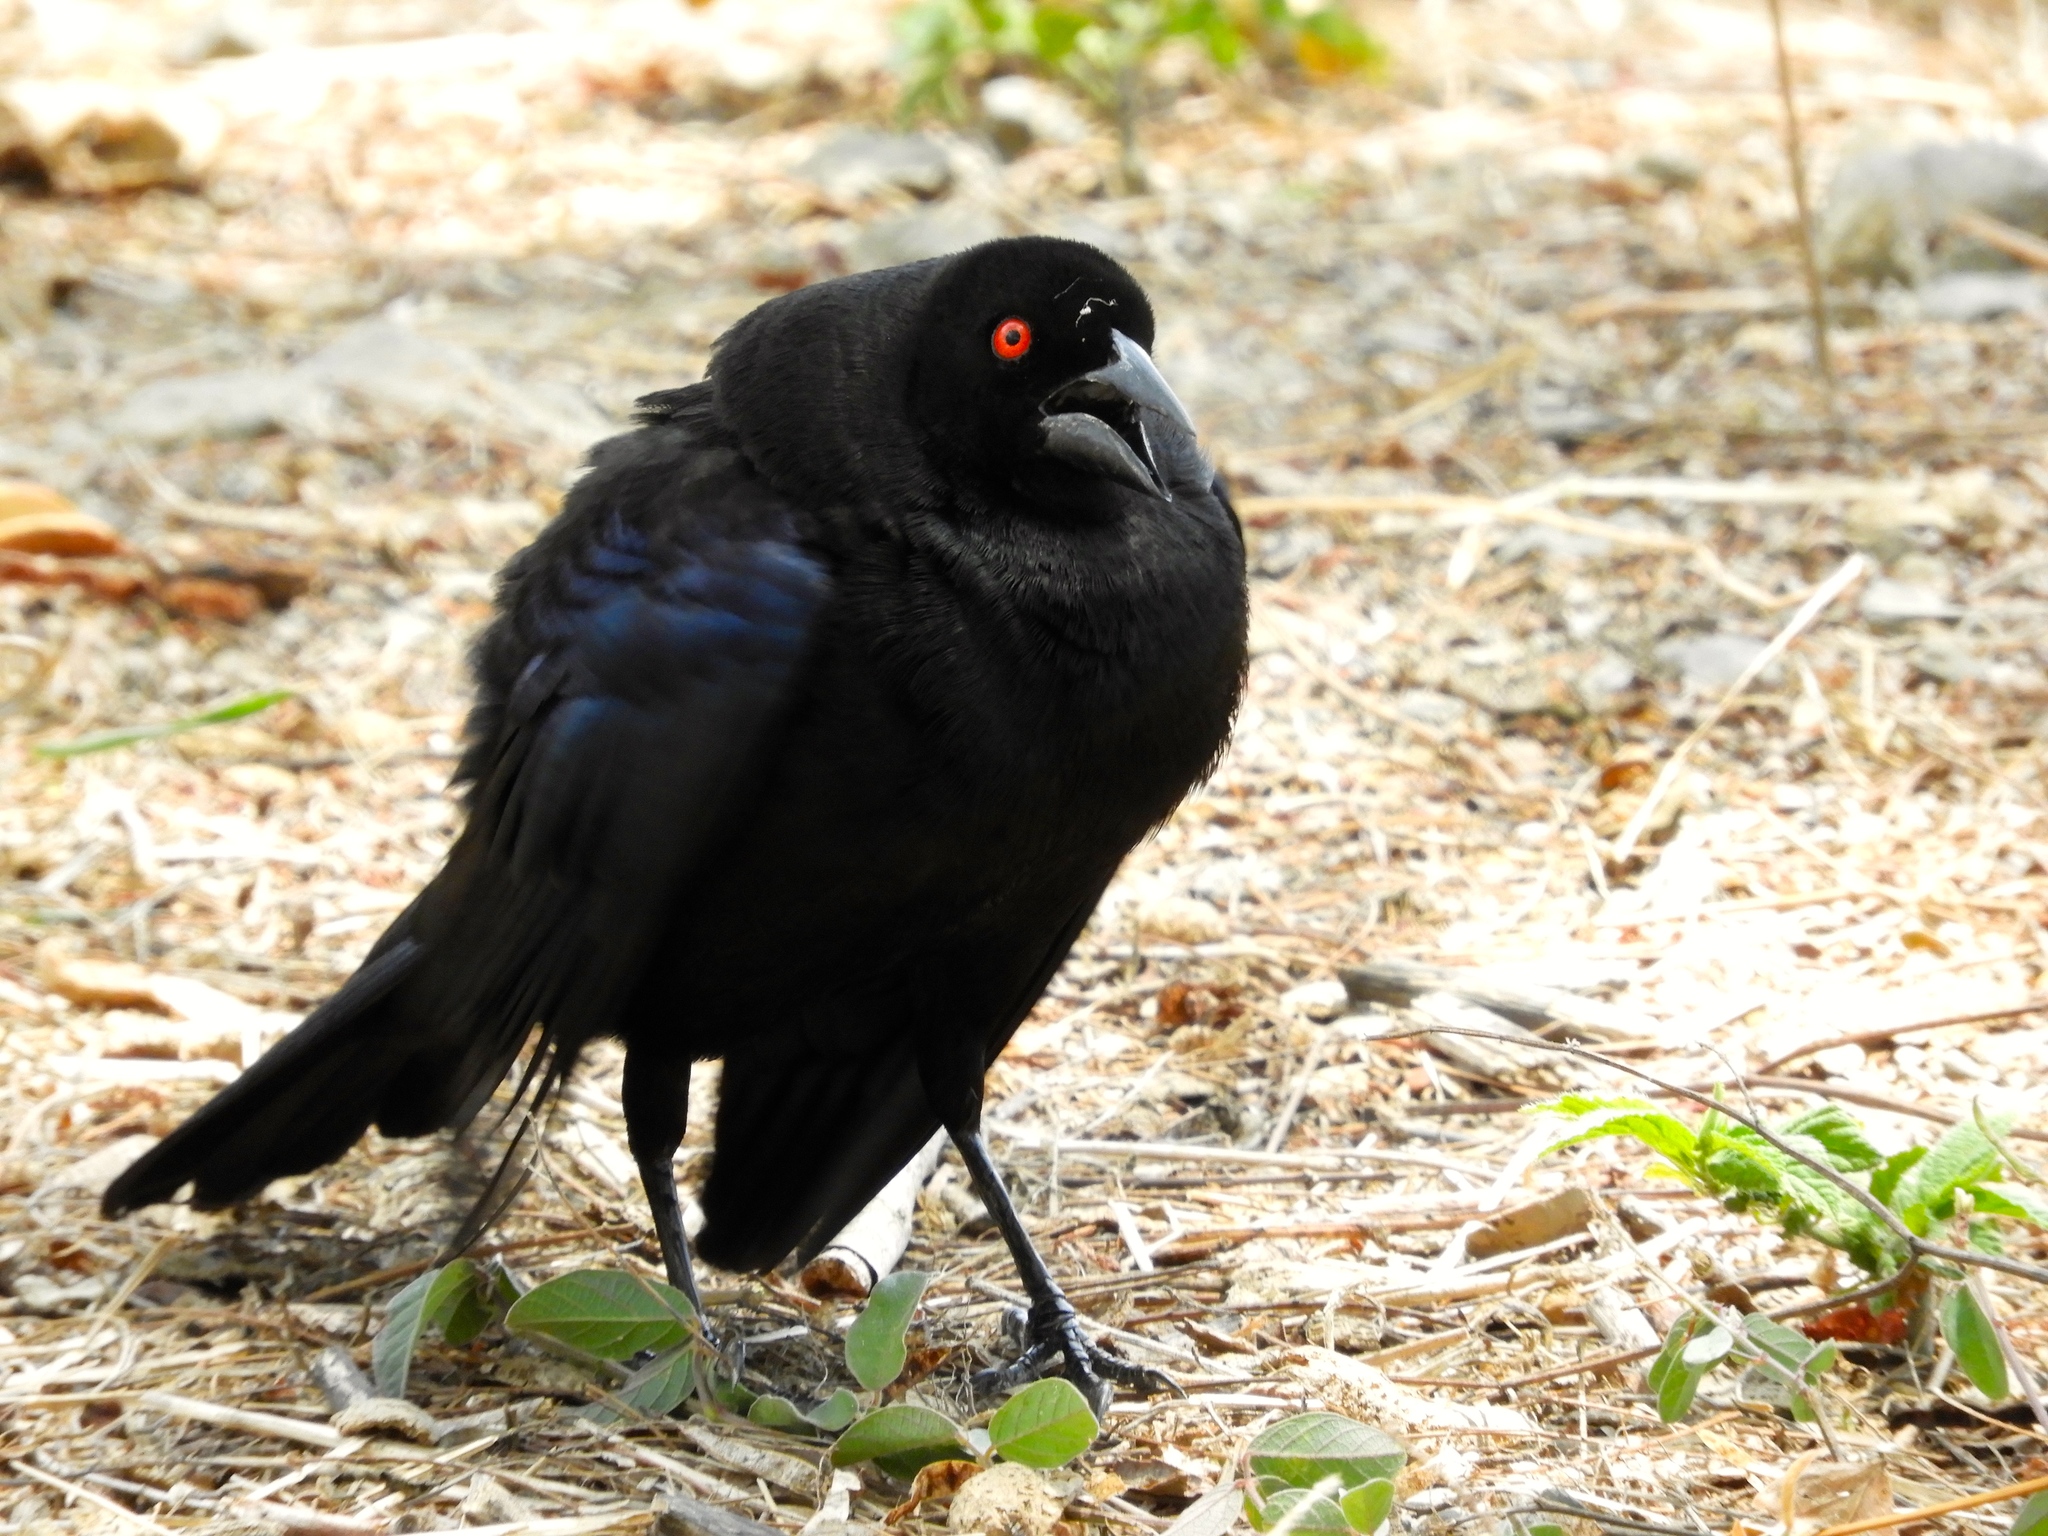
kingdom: Animalia
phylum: Chordata
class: Aves
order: Passeriformes
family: Icteridae
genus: Molothrus
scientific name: Molothrus aeneus
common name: Bronzed cowbird
